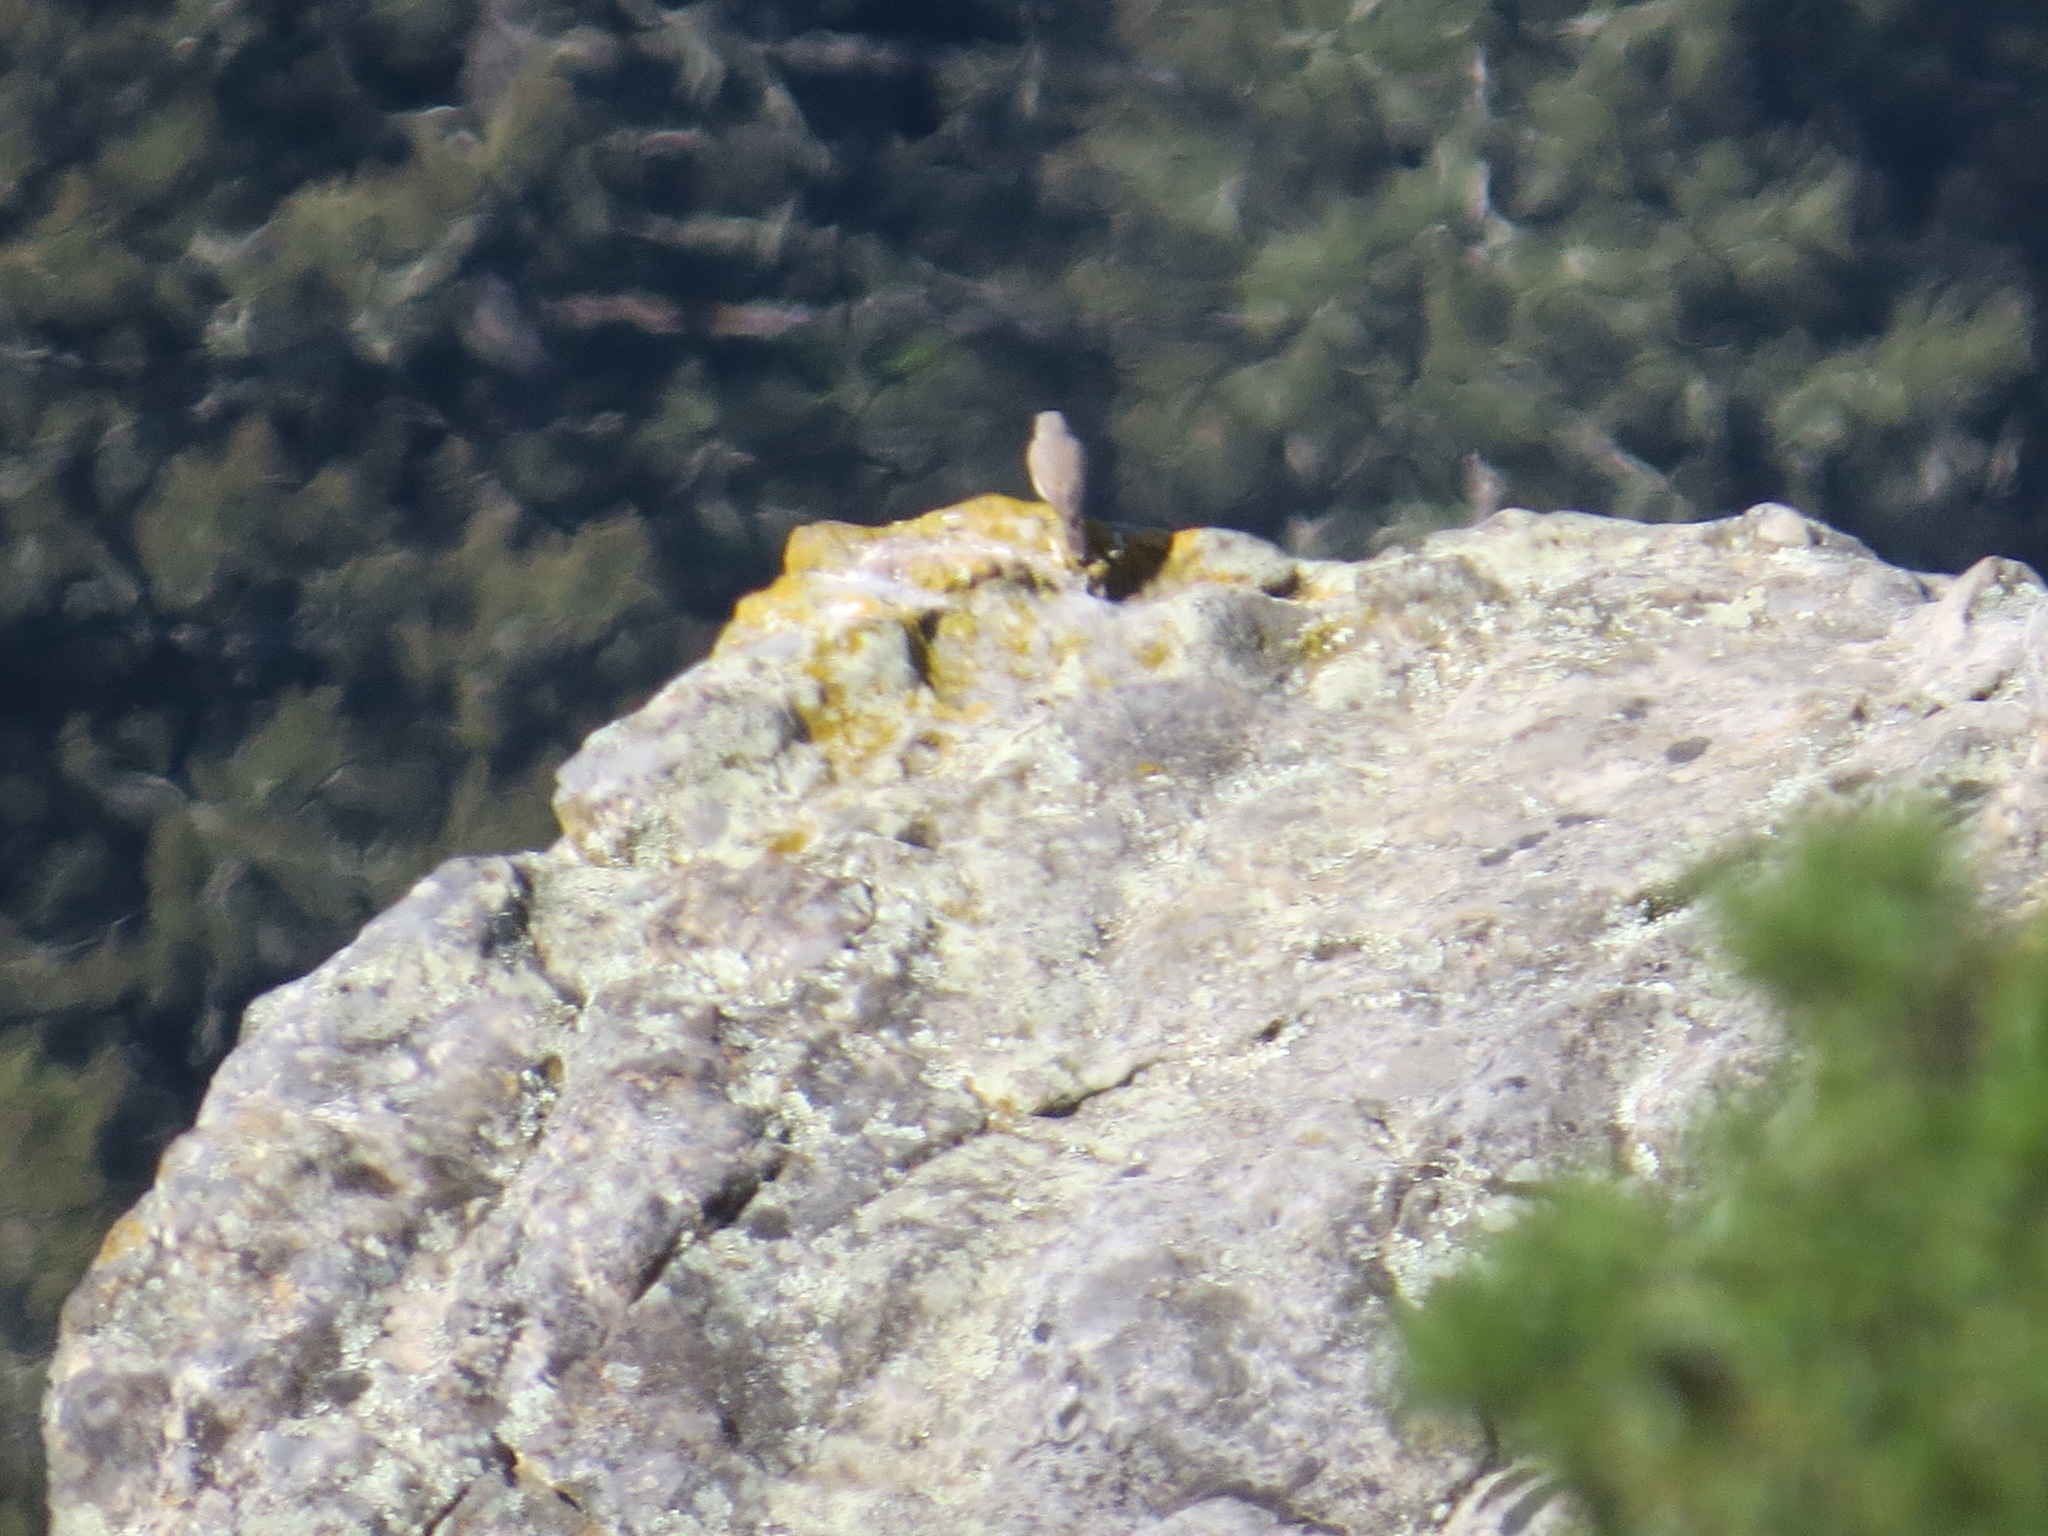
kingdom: Animalia
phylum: Chordata
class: Aves
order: Passeriformes
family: Troglodytidae
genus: Salpinctes
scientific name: Salpinctes obsoletus
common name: Rock wren
